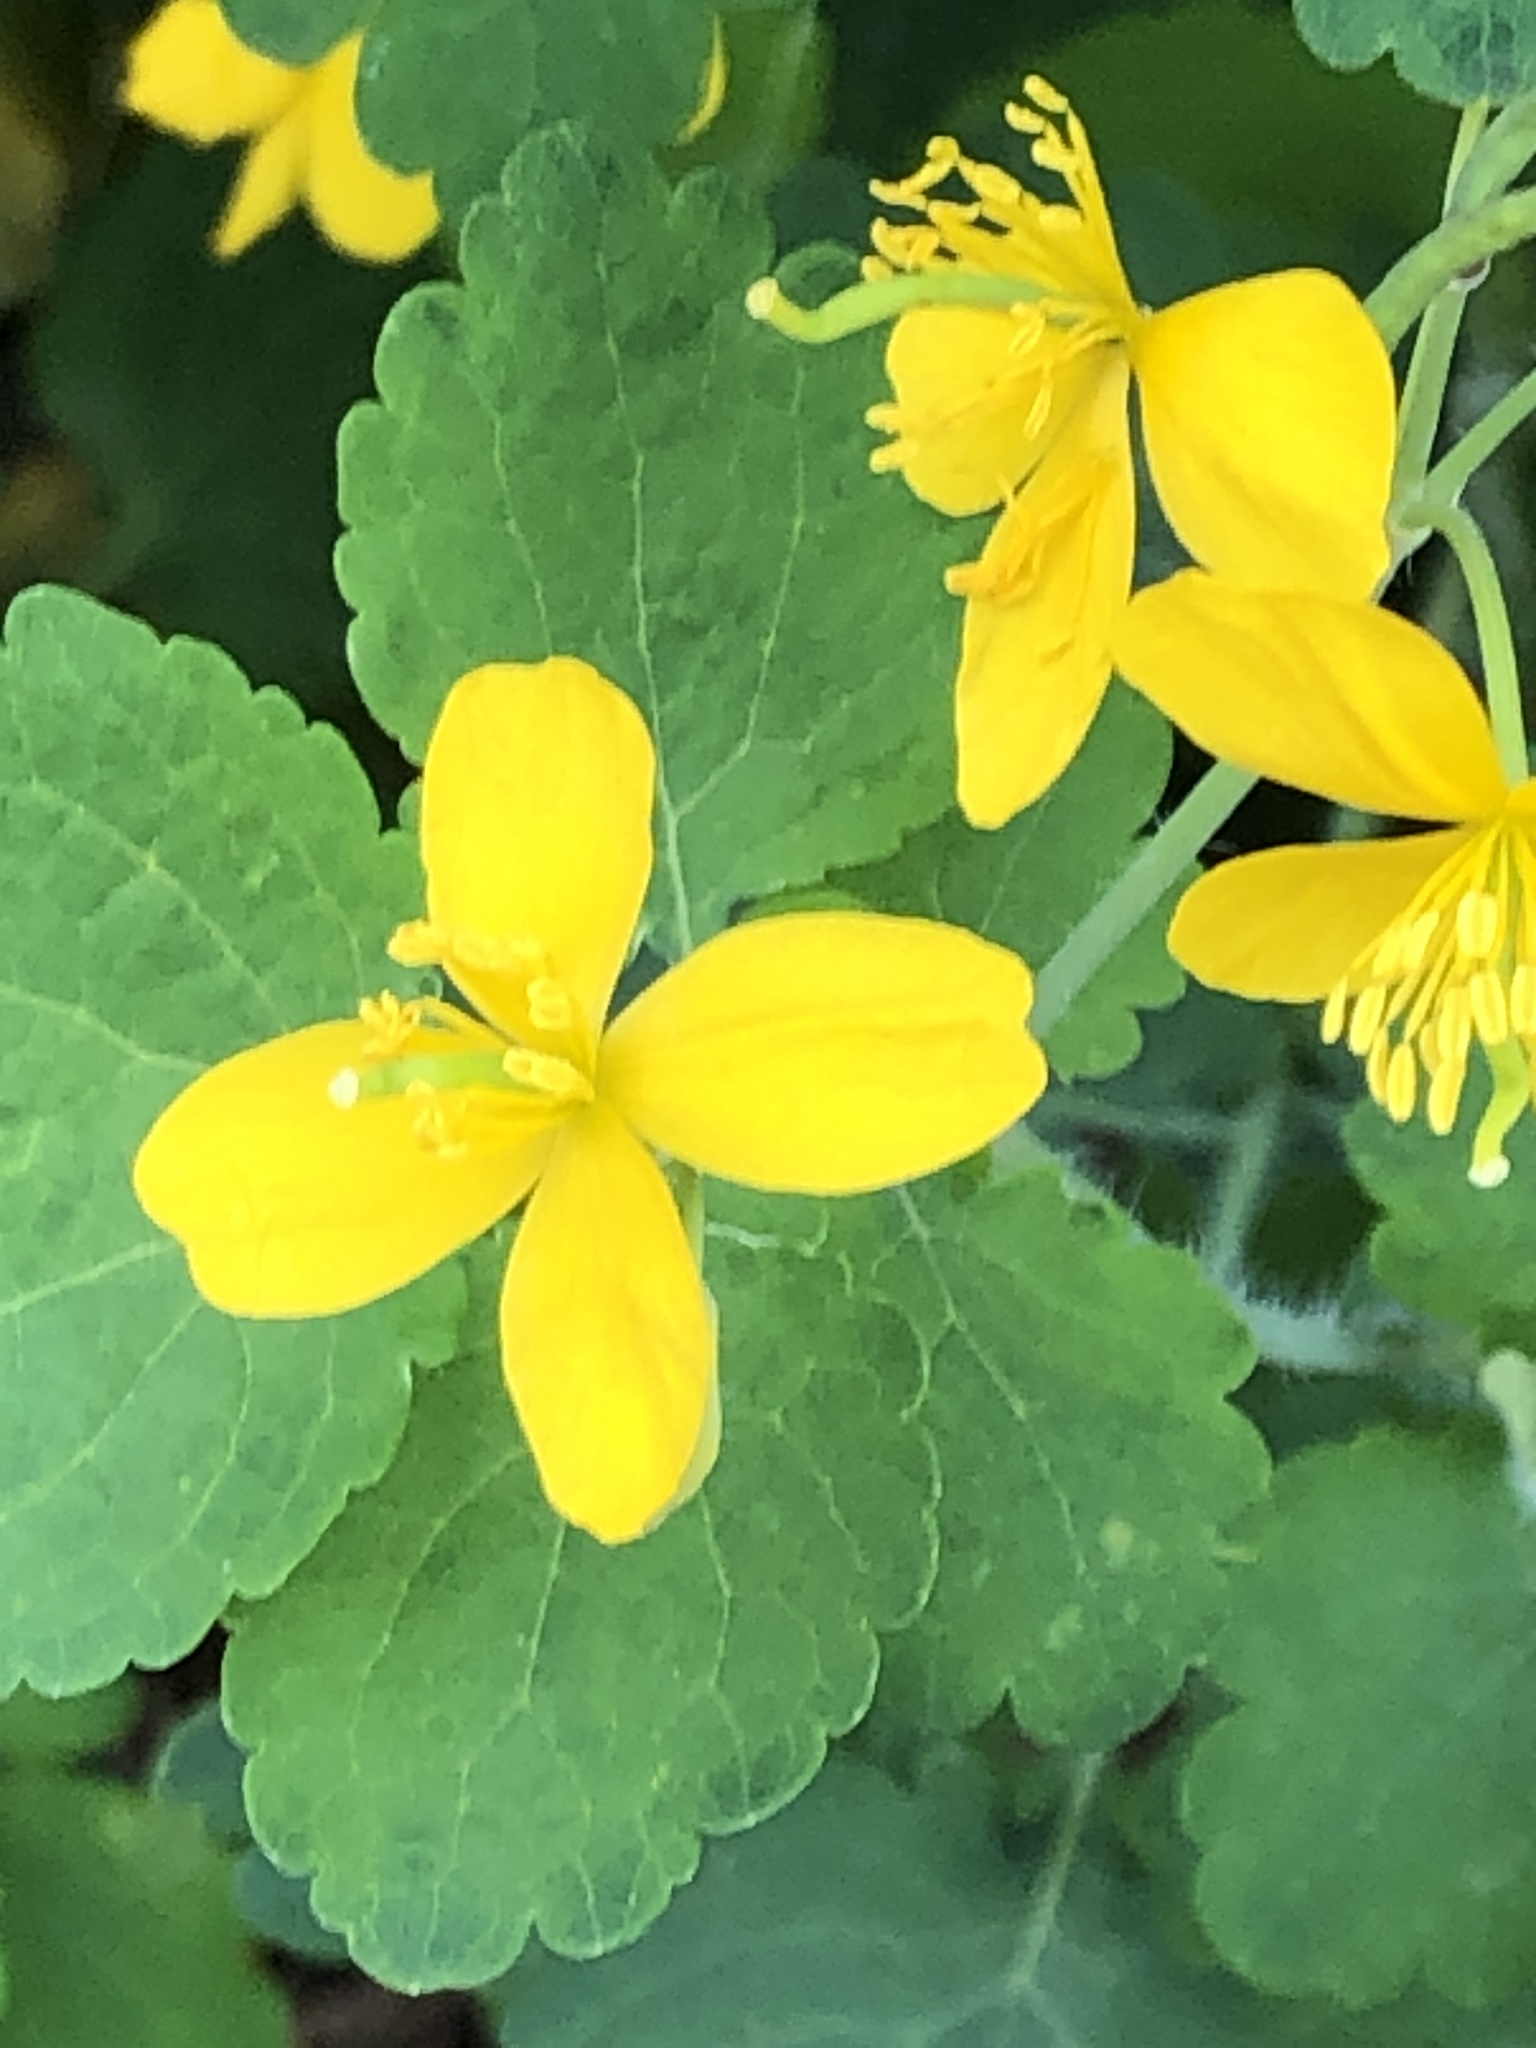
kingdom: Plantae
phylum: Tracheophyta
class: Magnoliopsida
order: Ranunculales
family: Papaveraceae
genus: Chelidonium
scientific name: Chelidonium majus
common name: Greater celandine
